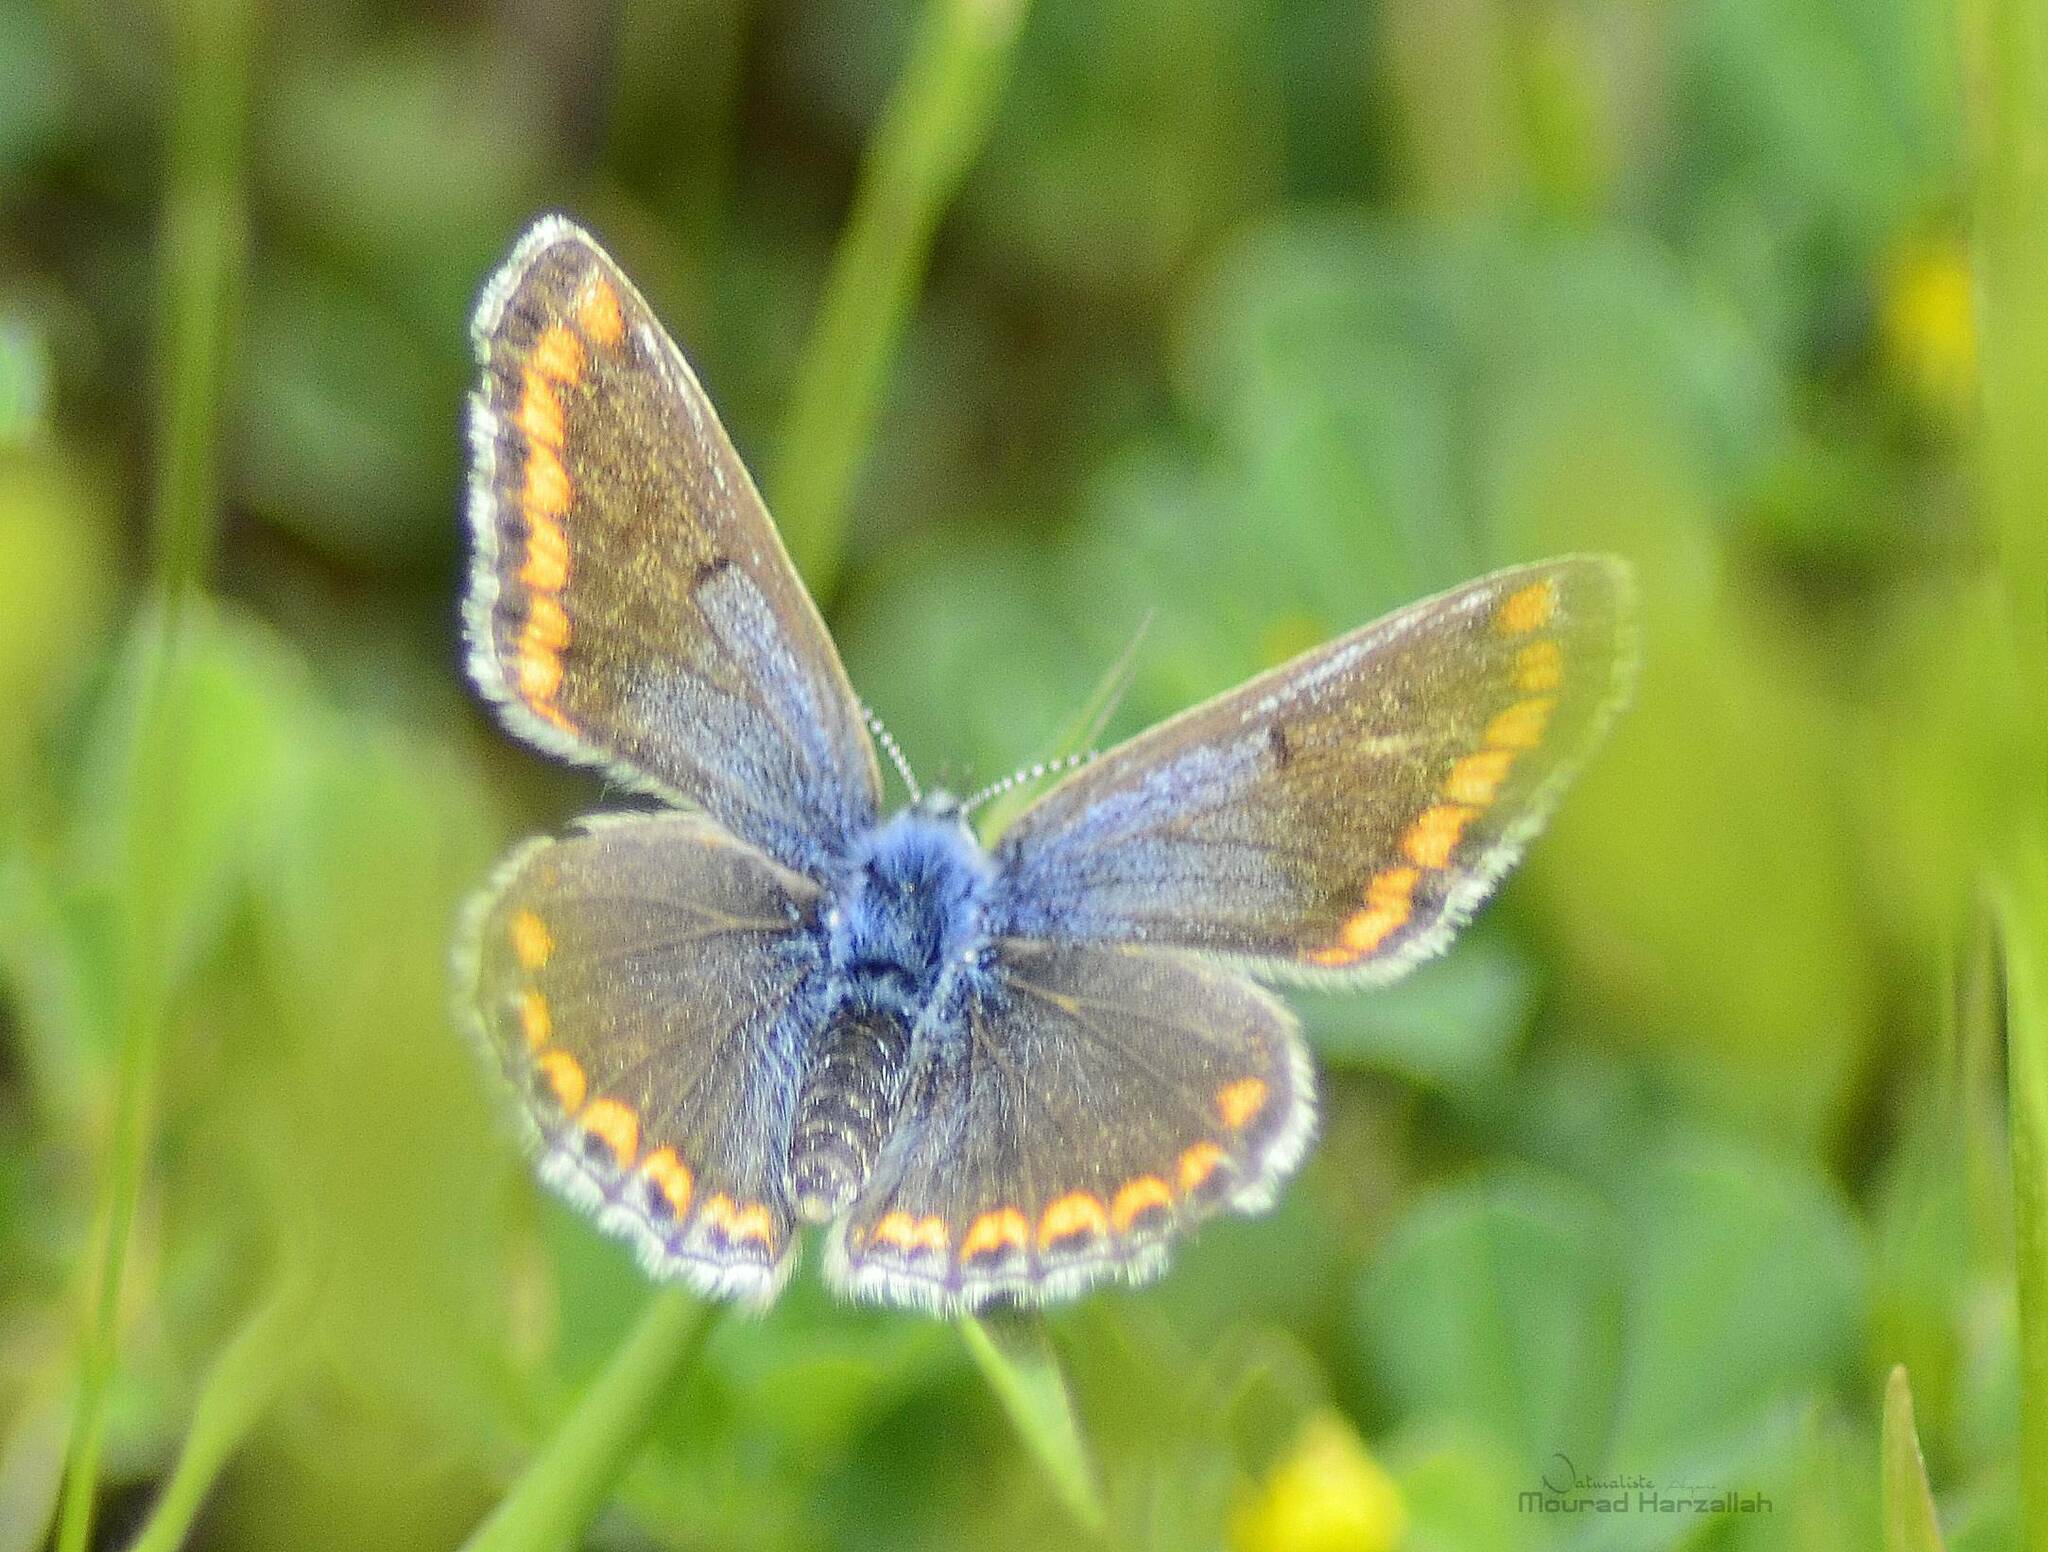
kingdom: Animalia
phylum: Arthropoda
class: Insecta
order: Lepidoptera
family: Lycaenidae
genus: Polyommatus
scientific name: Polyommatus celina
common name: Austaut's blue
